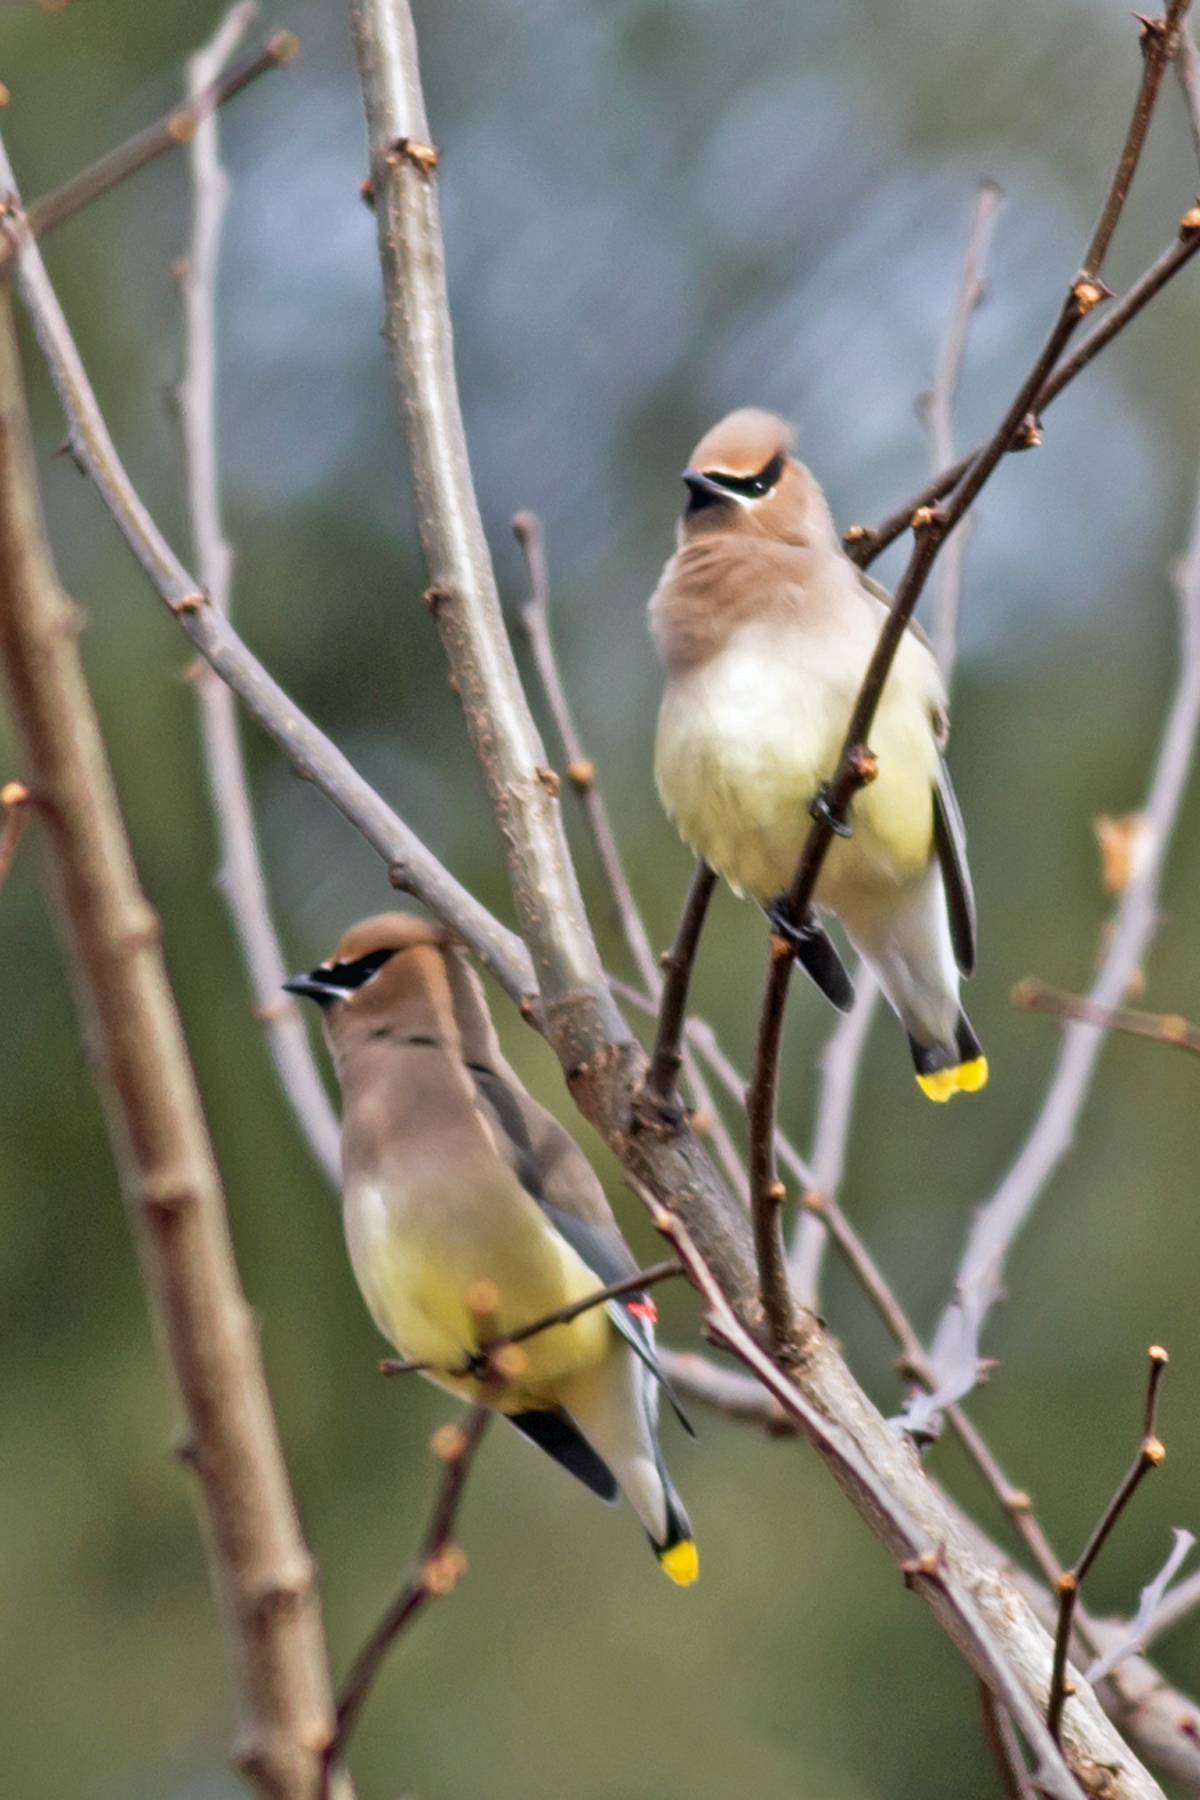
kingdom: Animalia
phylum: Chordata
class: Aves
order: Passeriformes
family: Bombycillidae
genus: Bombycilla
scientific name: Bombycilla cedrorum
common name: Cedar waxwing
